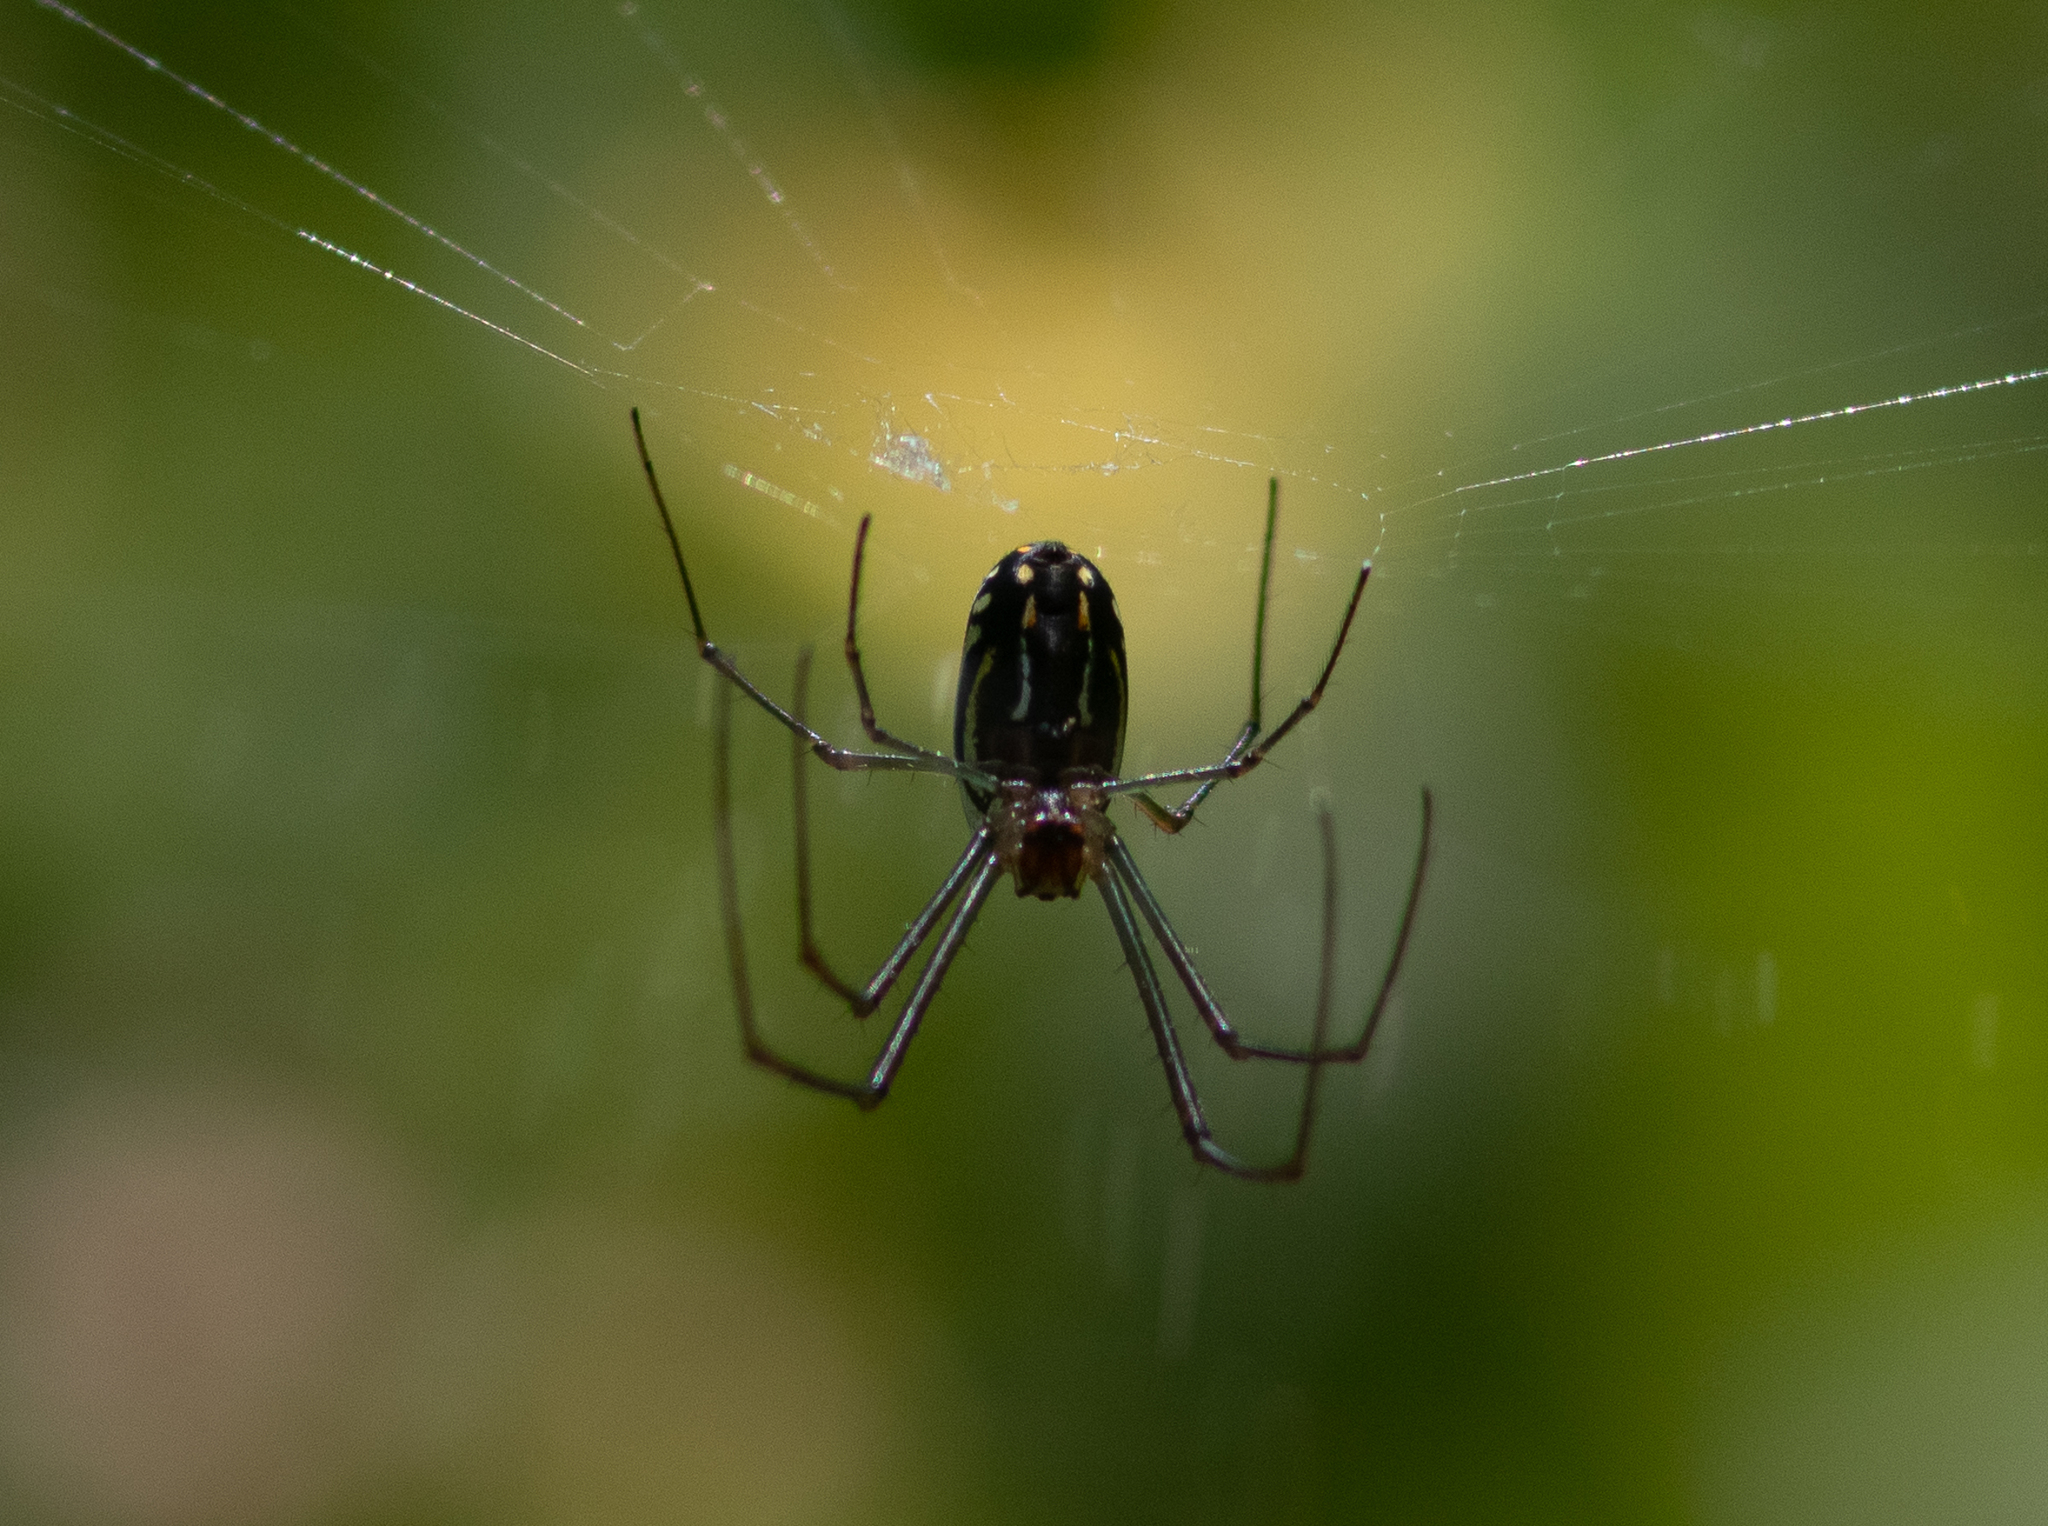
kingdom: Animalia
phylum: Arthropoda
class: Arachnida
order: Araneae
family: Tetragnathidae
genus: Leucauge
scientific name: Leucauge argyra
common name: Longjawed orb weavers
